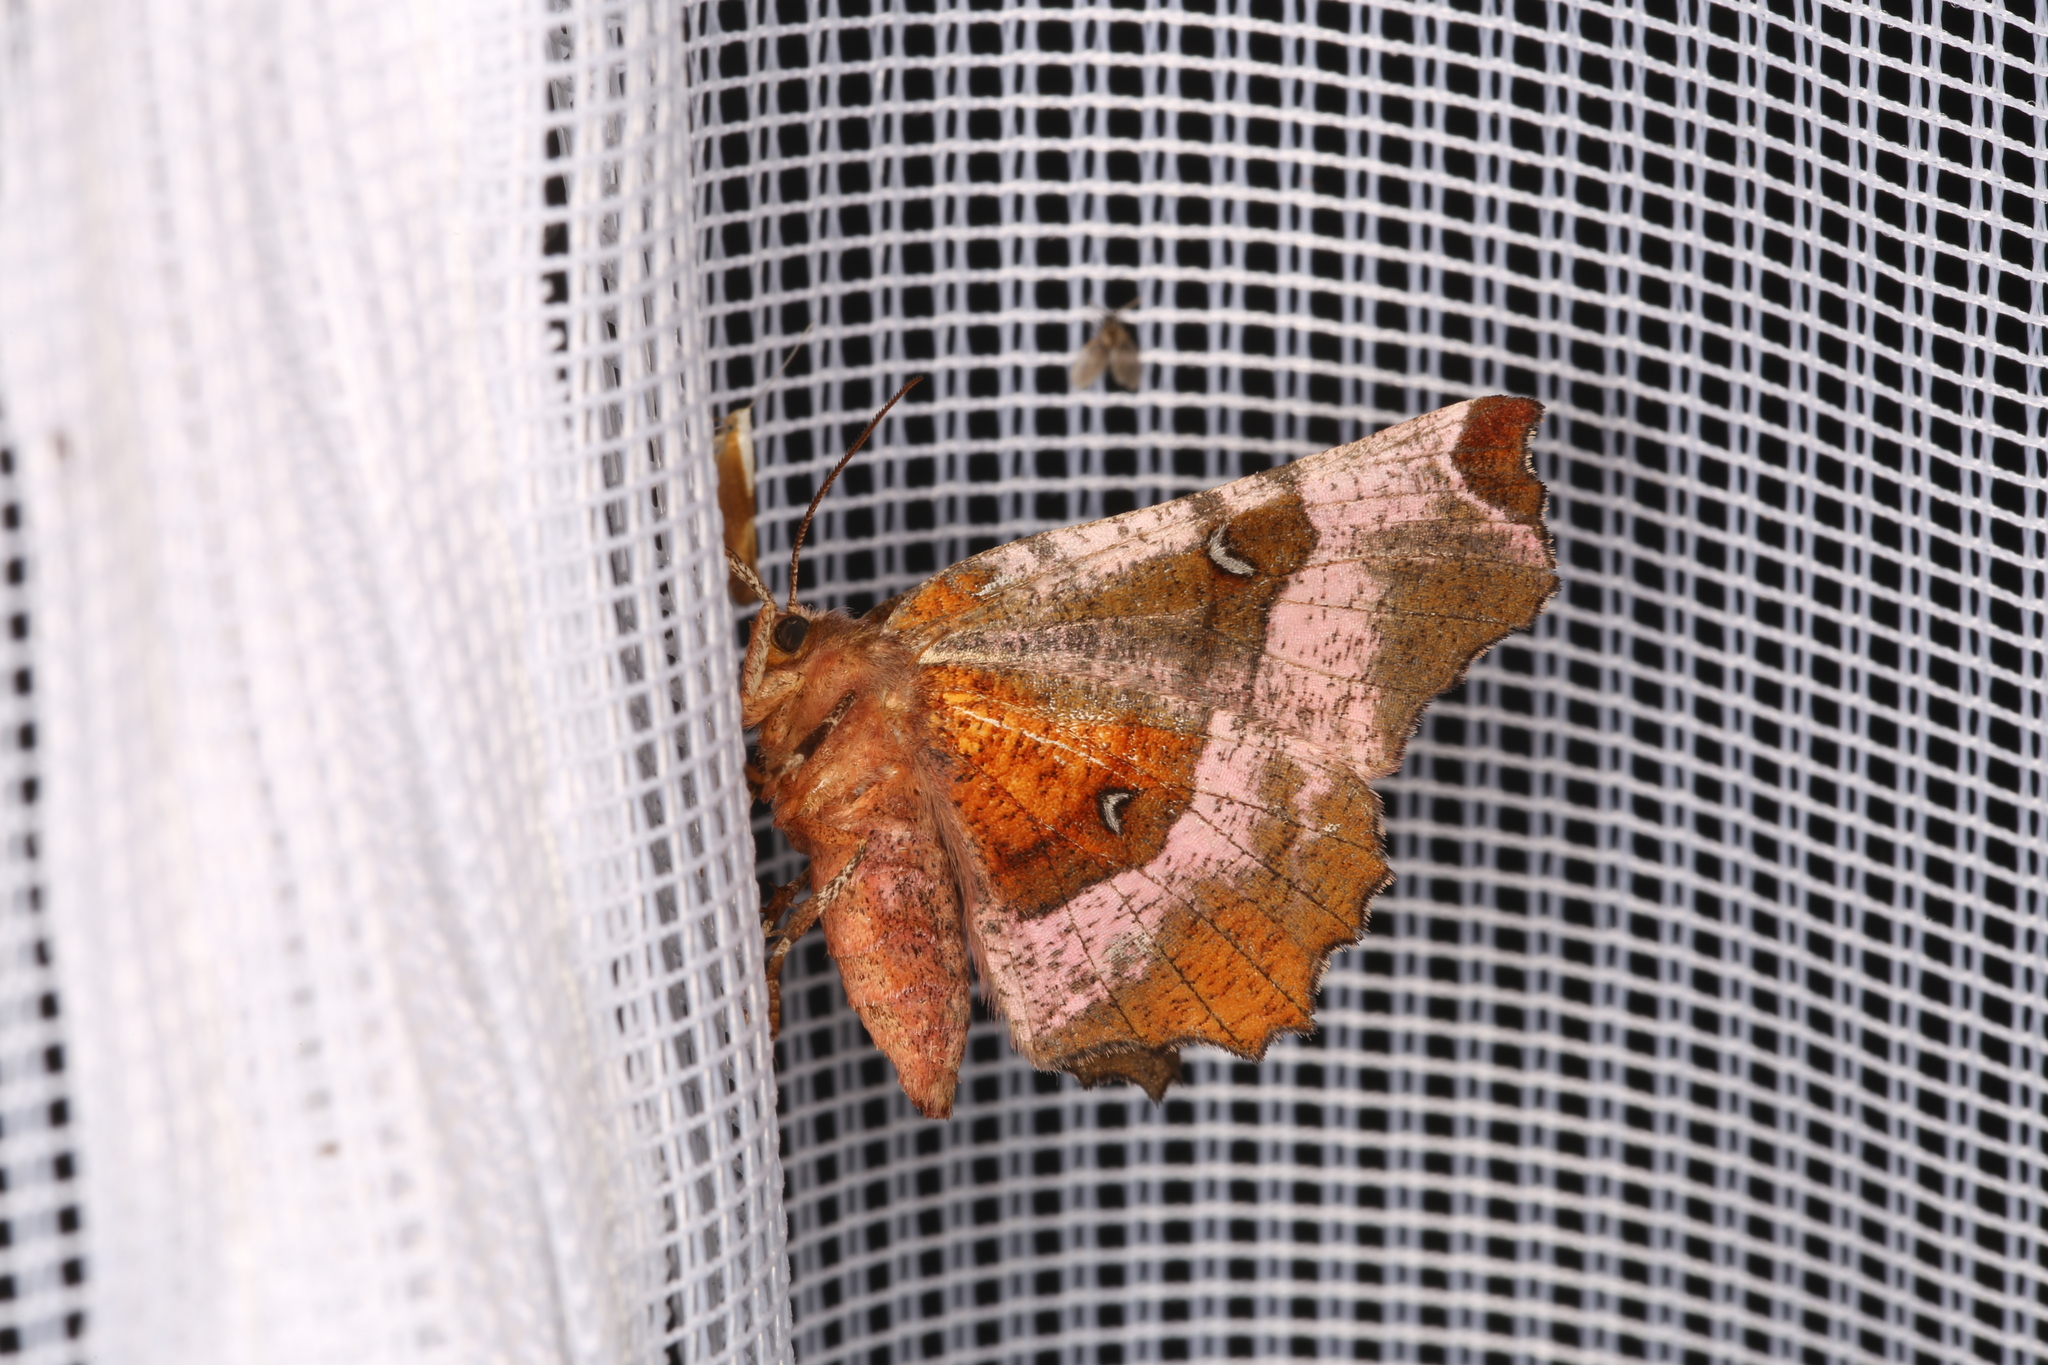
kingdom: Animalia
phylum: Arthropoda
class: Insecta
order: Lepidoptera
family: Geometridae
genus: Selenia
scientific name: Selenia tetralunaria
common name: Purple thorn
